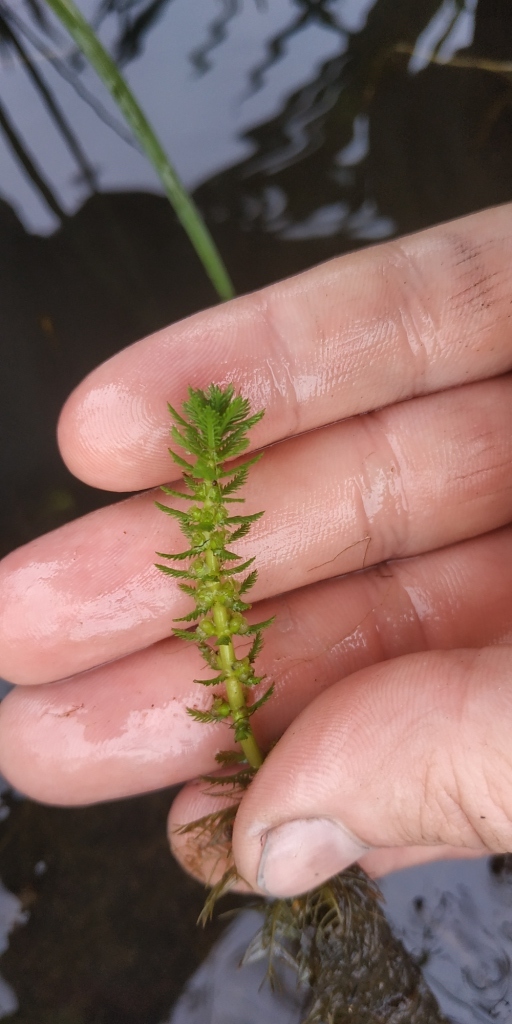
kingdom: Plantae
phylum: Tracheophyta
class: Magnoliopsida
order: Saxifragales
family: Haloragaceae
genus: Myriophyllum
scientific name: Myriophyllum verticillatum
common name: Whorled water-milfoil
